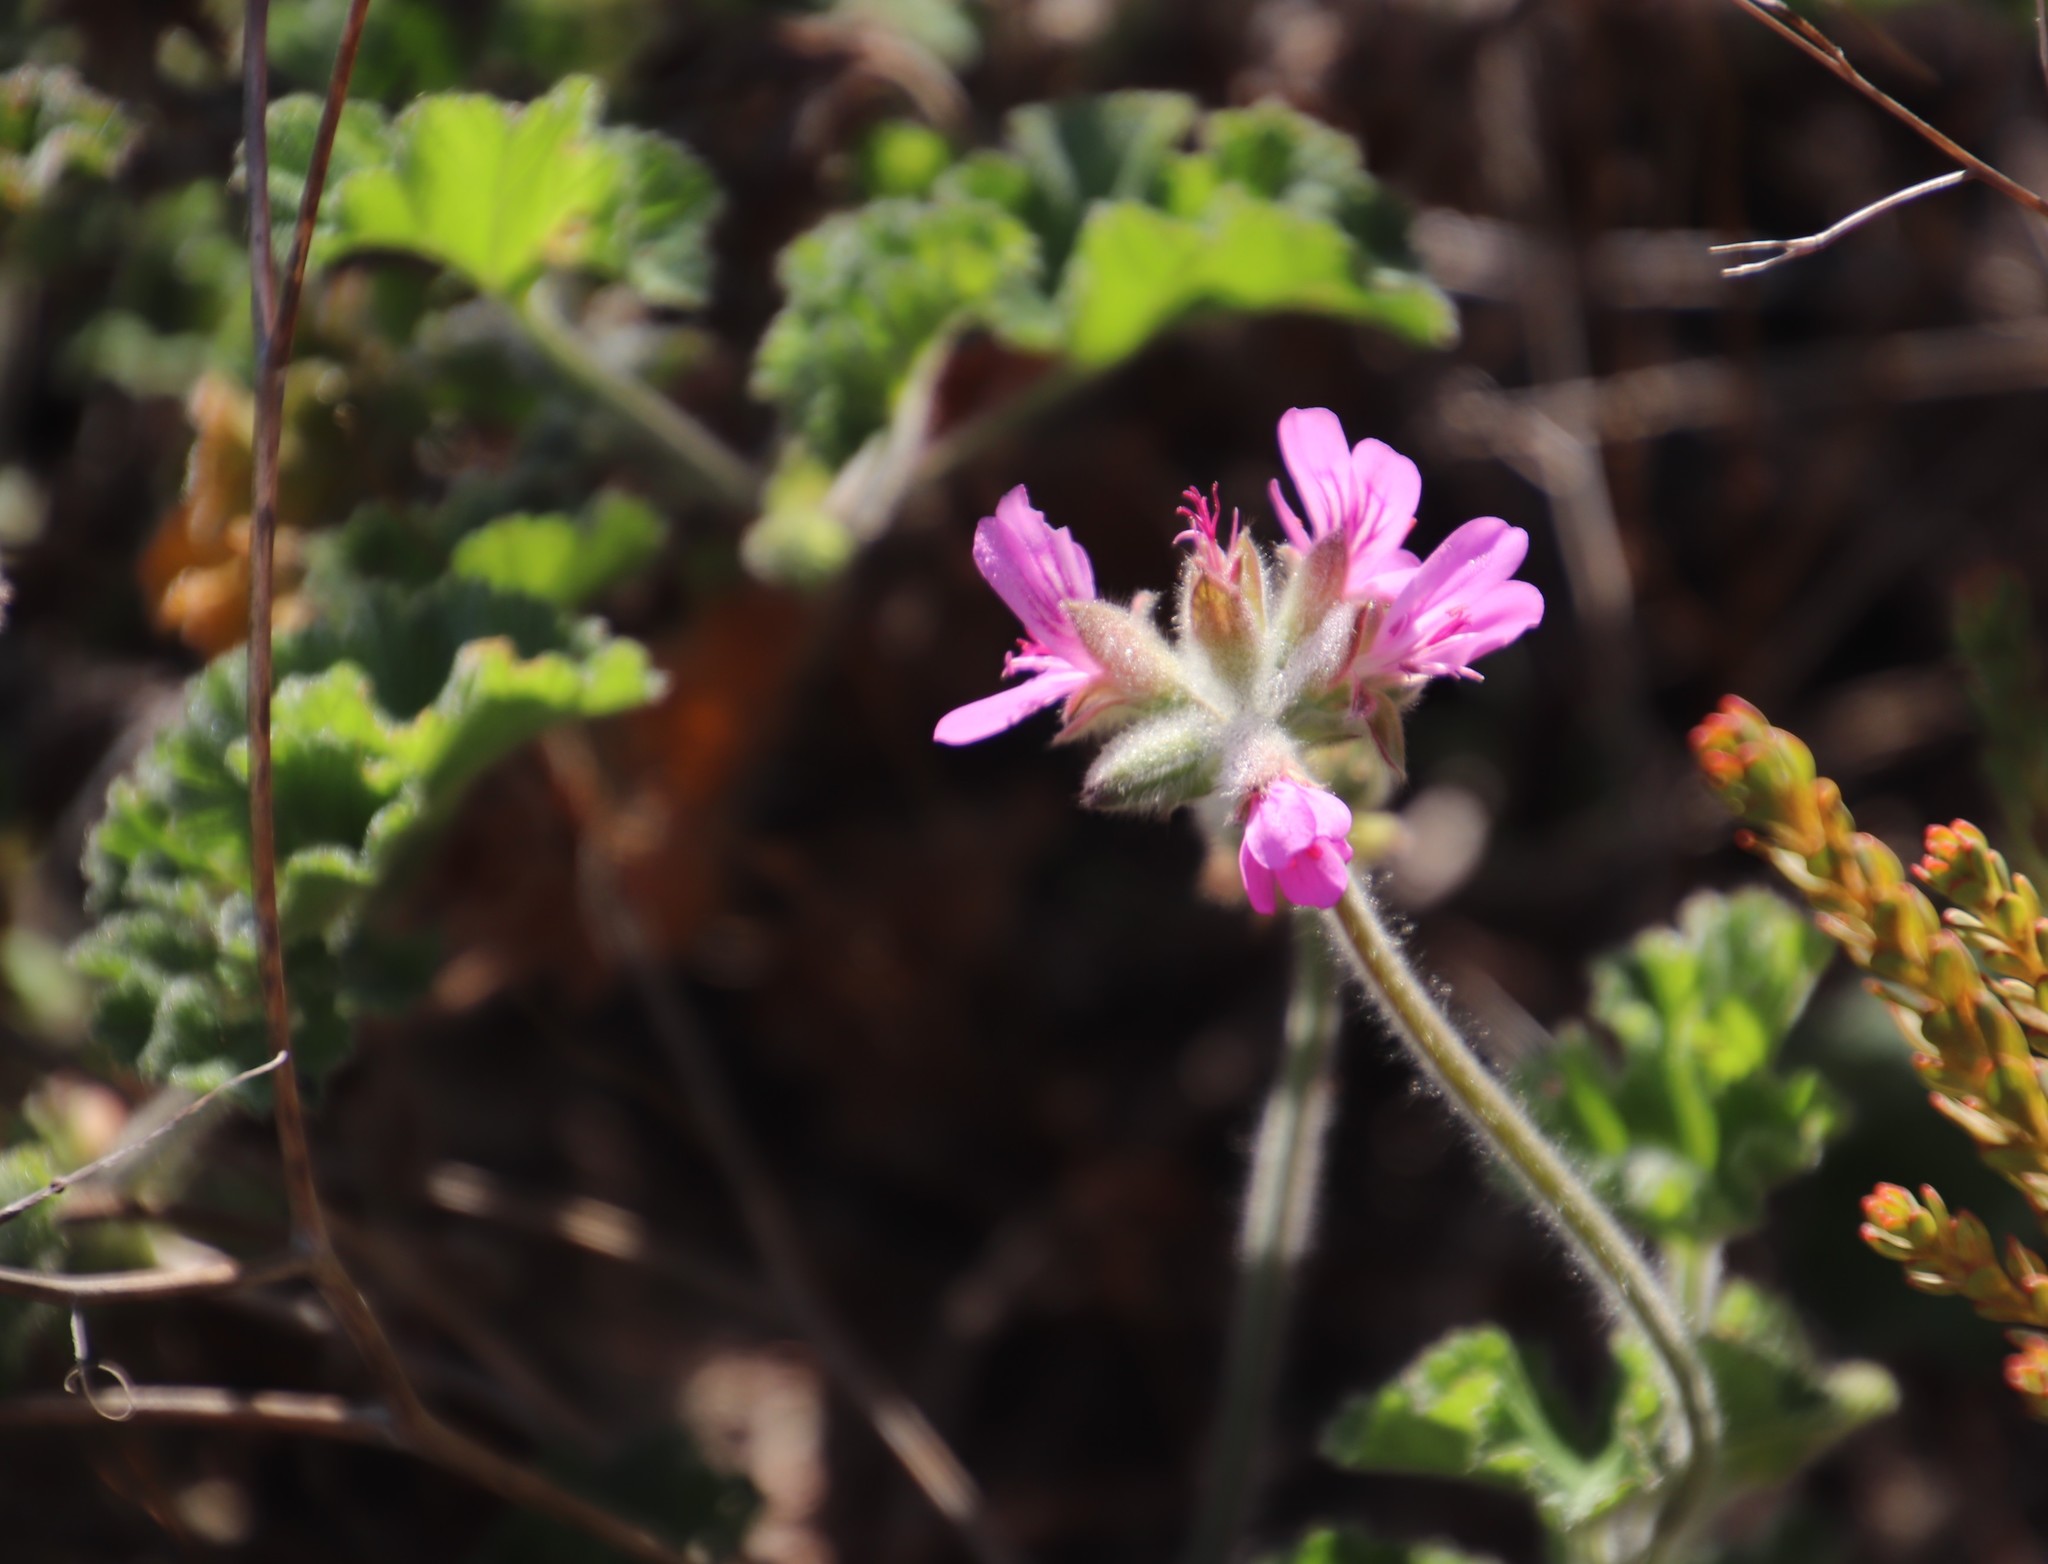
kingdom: Plantae
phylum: Tracheophyta
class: Magnoliopsida
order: Geraniales
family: Geraniaceae
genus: Pelargonium
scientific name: Pelargonium capitatum
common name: Rose scented geranium
